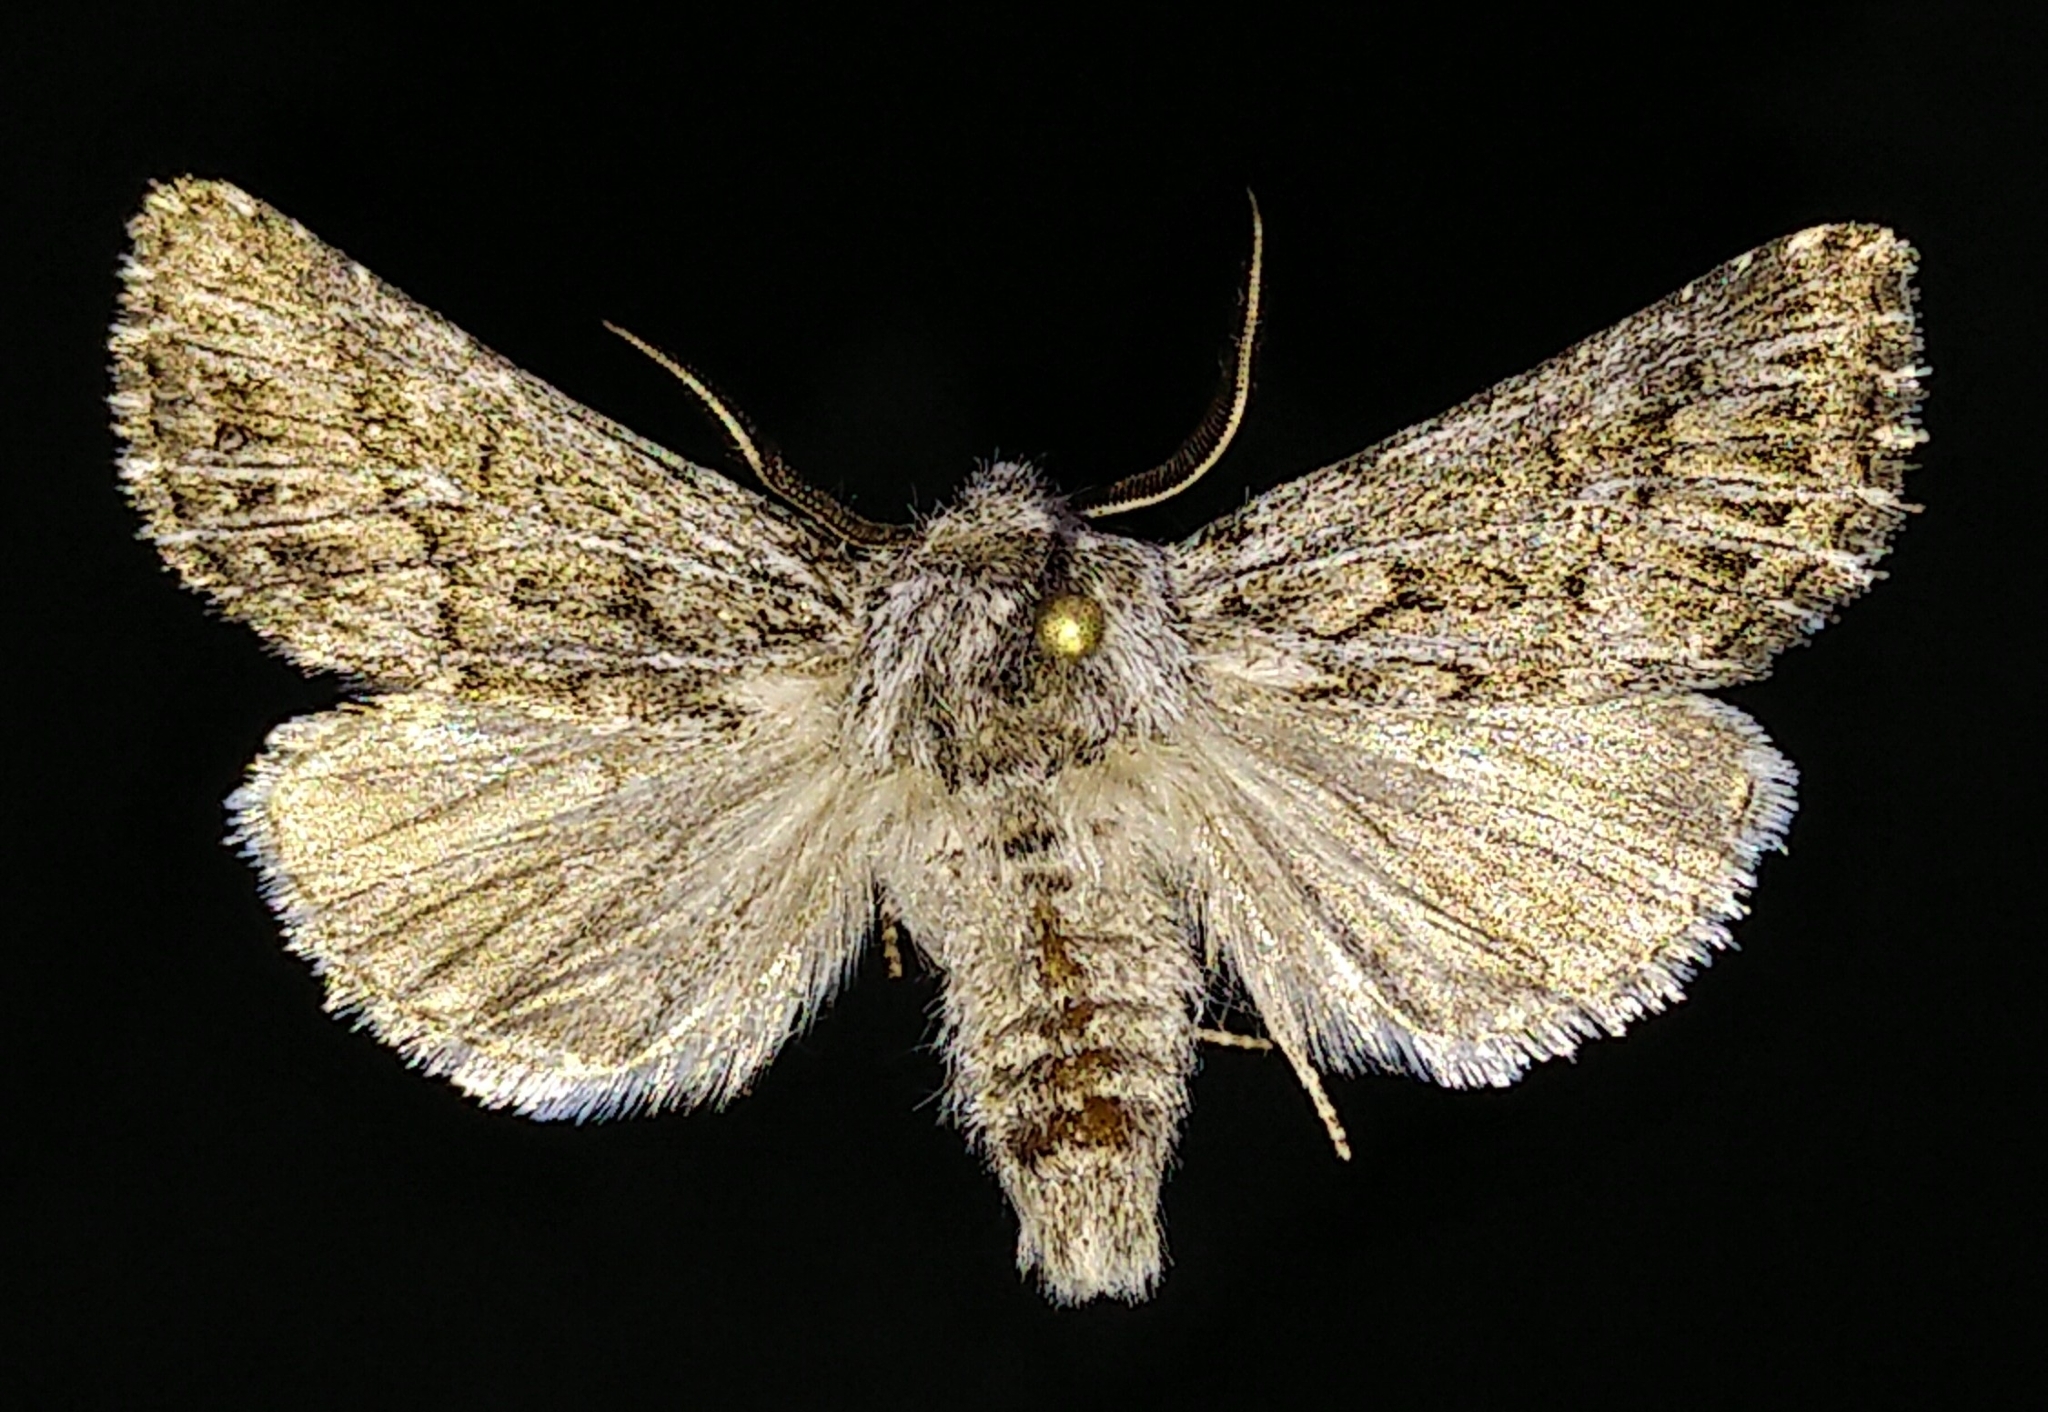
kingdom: Animalia
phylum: Arthropoda
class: Insecta
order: Lepidoptera
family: Noctuidae
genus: Tholera
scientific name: Tholera americana
